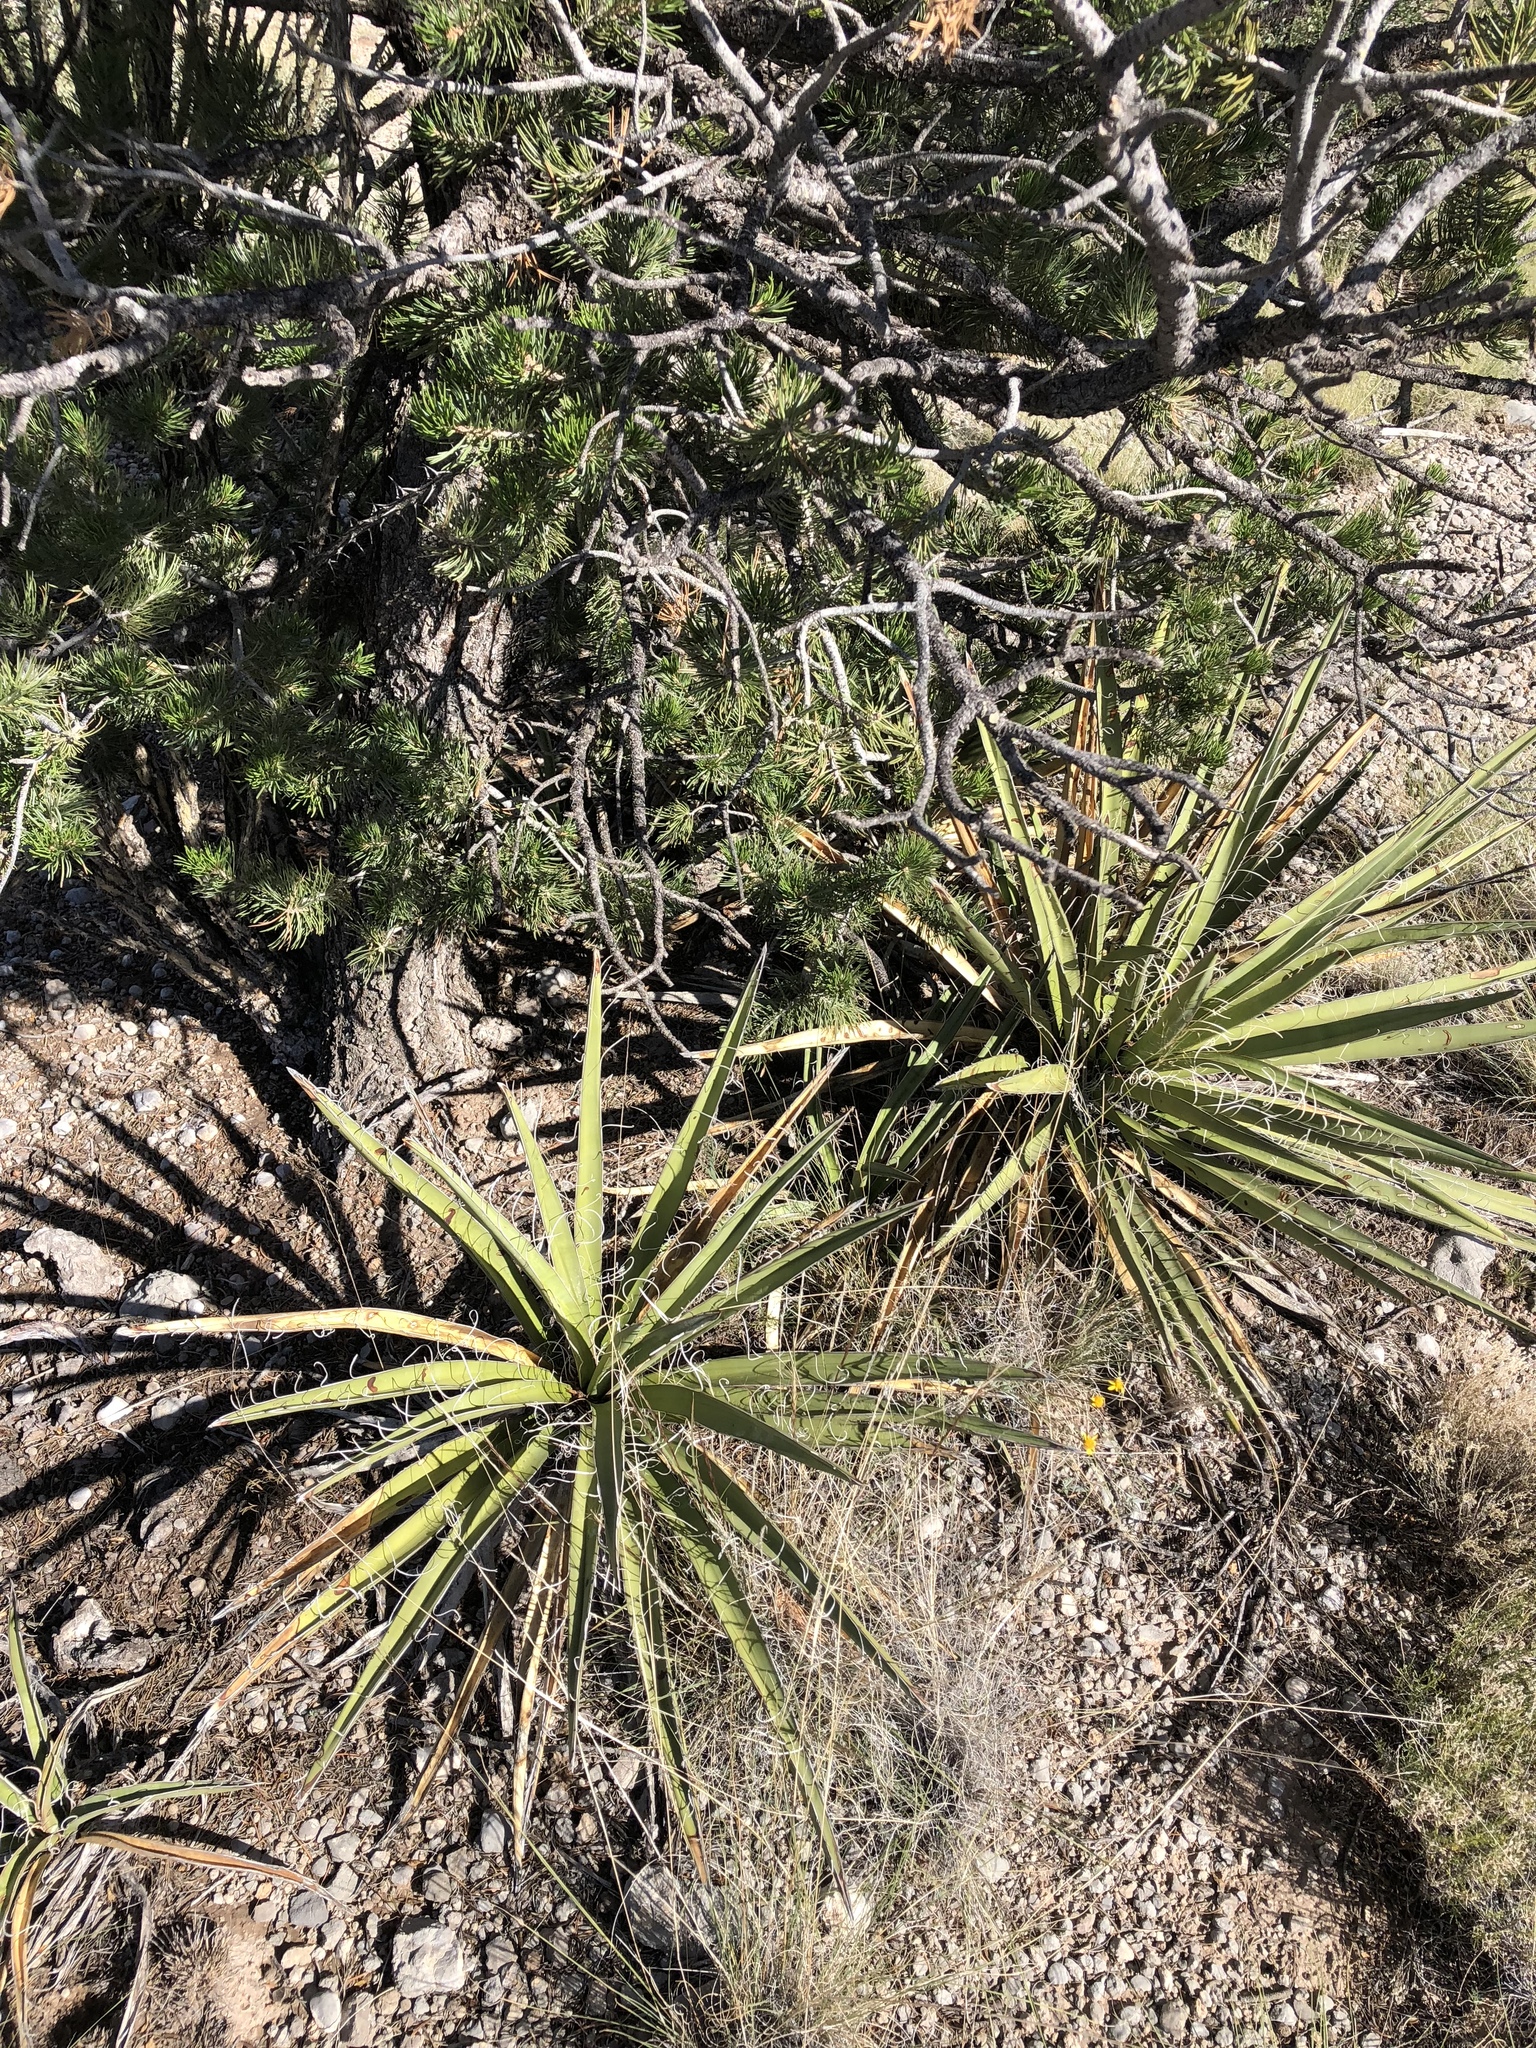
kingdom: Plantae
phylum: Tracheophyta
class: Liliopsida
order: Asparagales
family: Asparagaceae
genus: Yucca
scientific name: Yucca baccata
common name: Banana yucca
